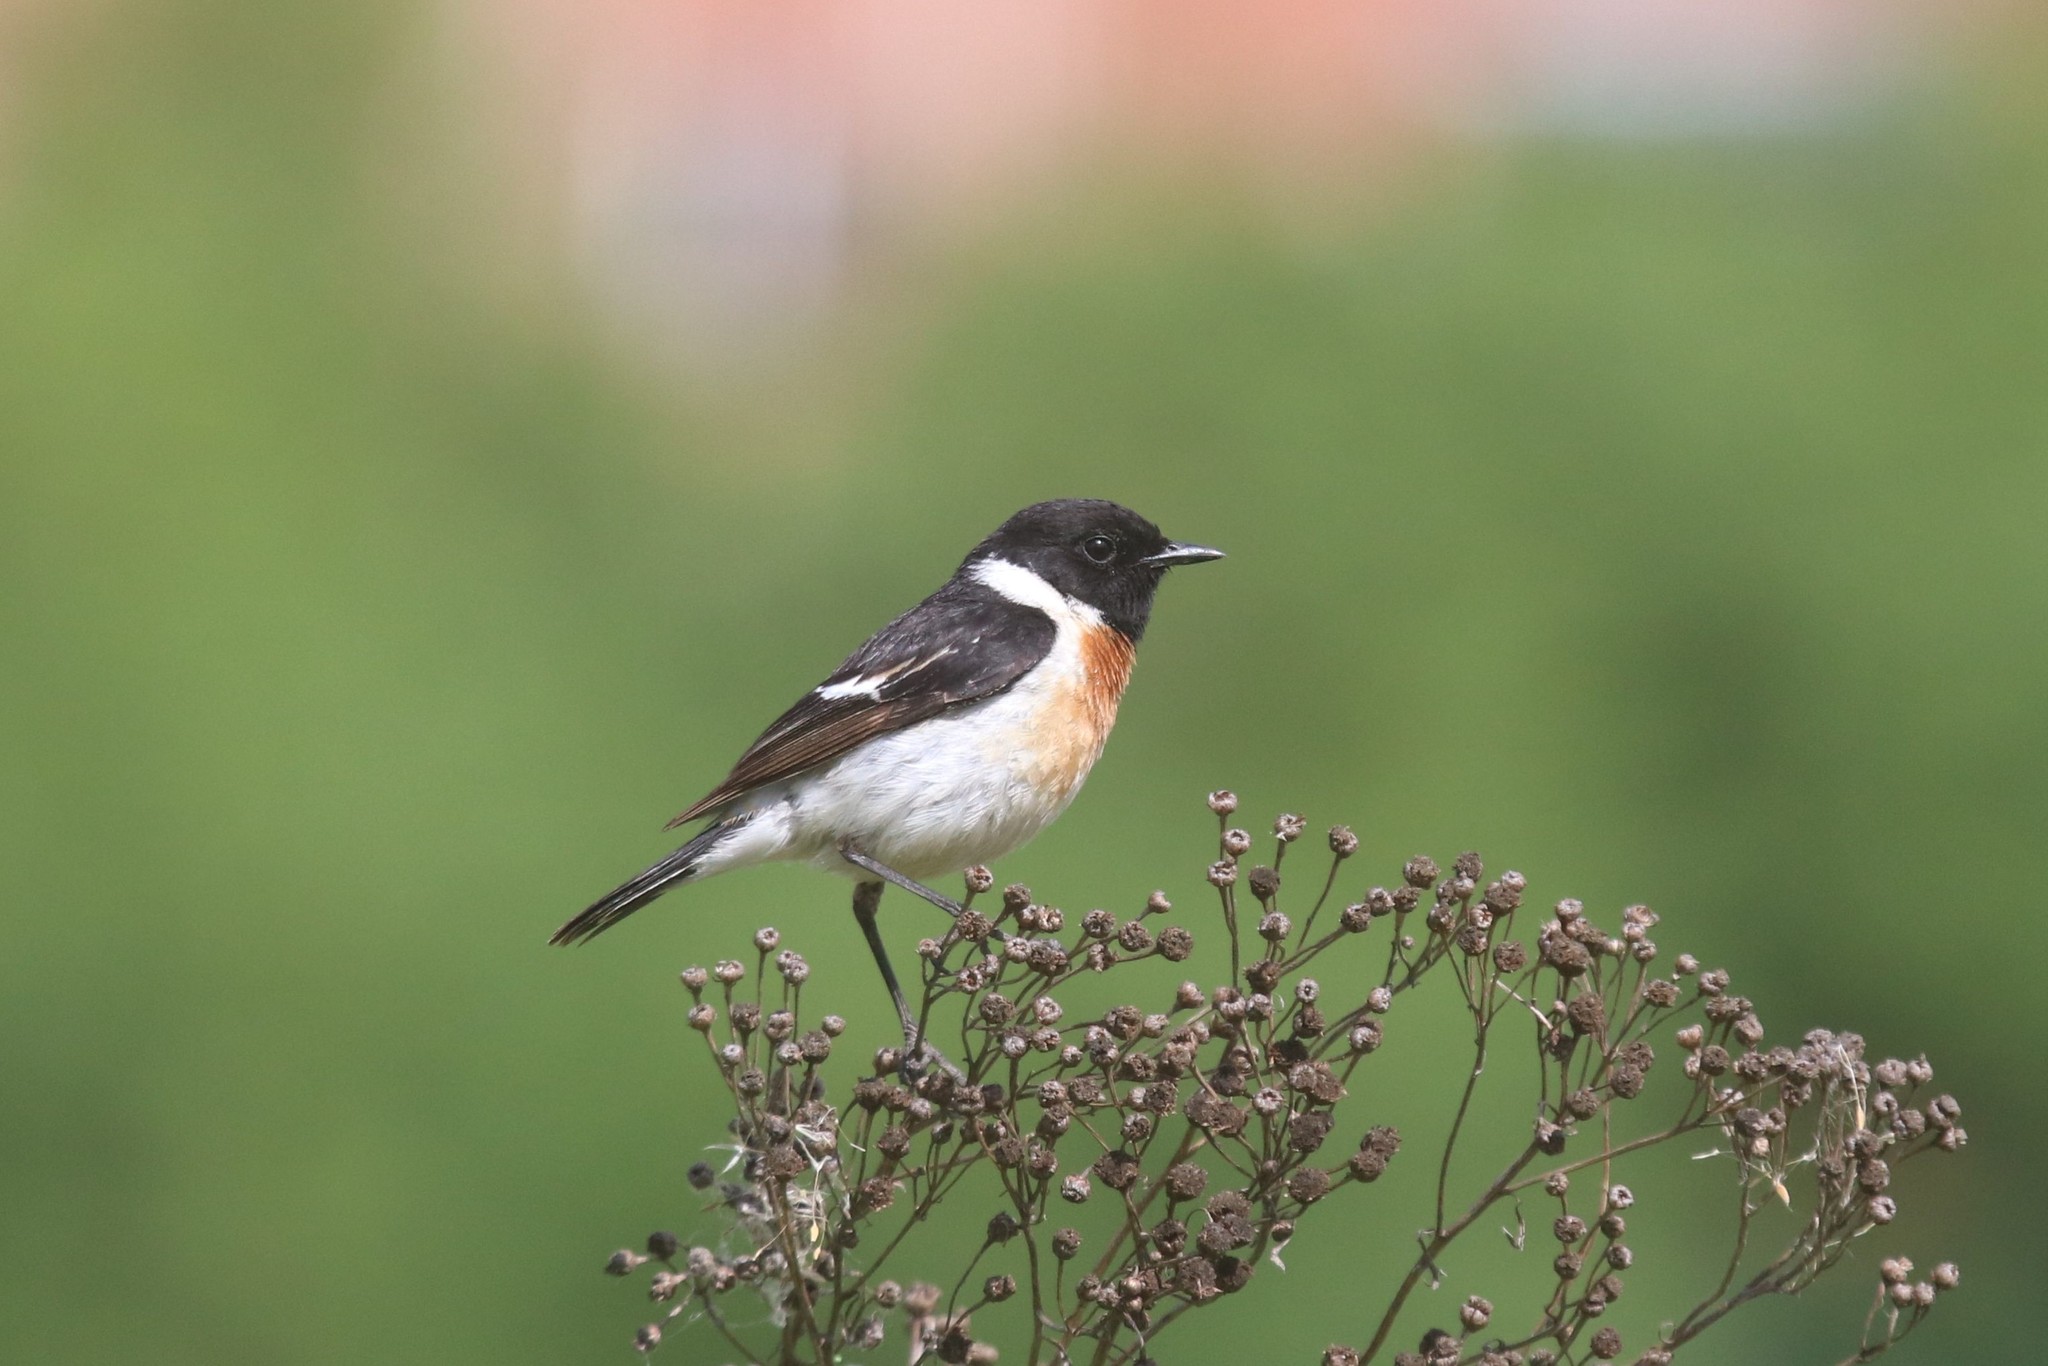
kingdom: Animalia
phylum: Chordata
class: Aves
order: Passeriformes
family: Muscicapidae
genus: Saxicola
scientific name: Saxicola maurus
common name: Siberian stonechat
